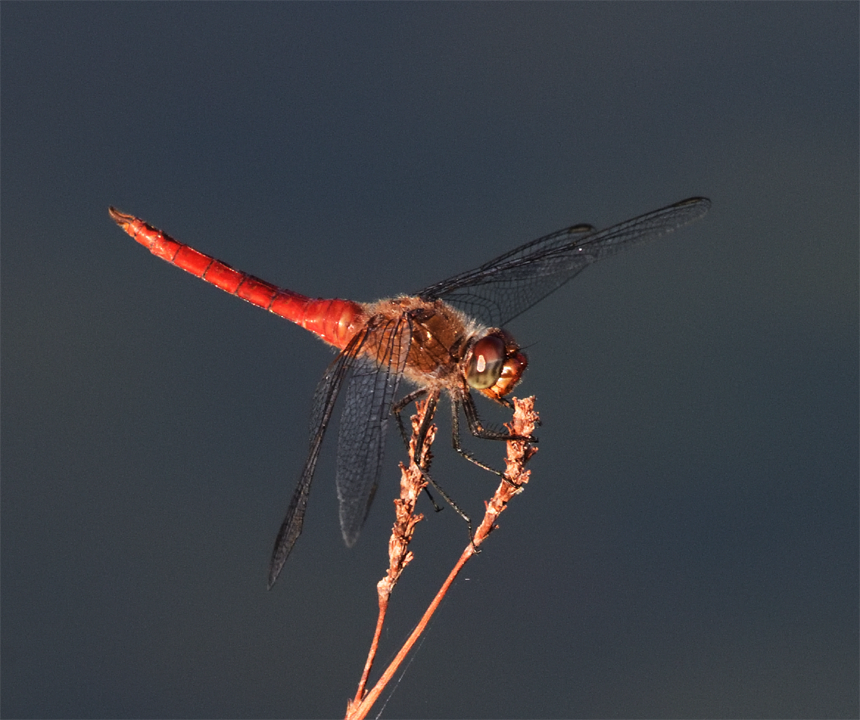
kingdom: Animalia
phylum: Arthropoda
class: Insecta
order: Odonata
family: Libellulidae
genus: Brachymesia
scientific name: Brachymesia furcata
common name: Red-taled pennant
